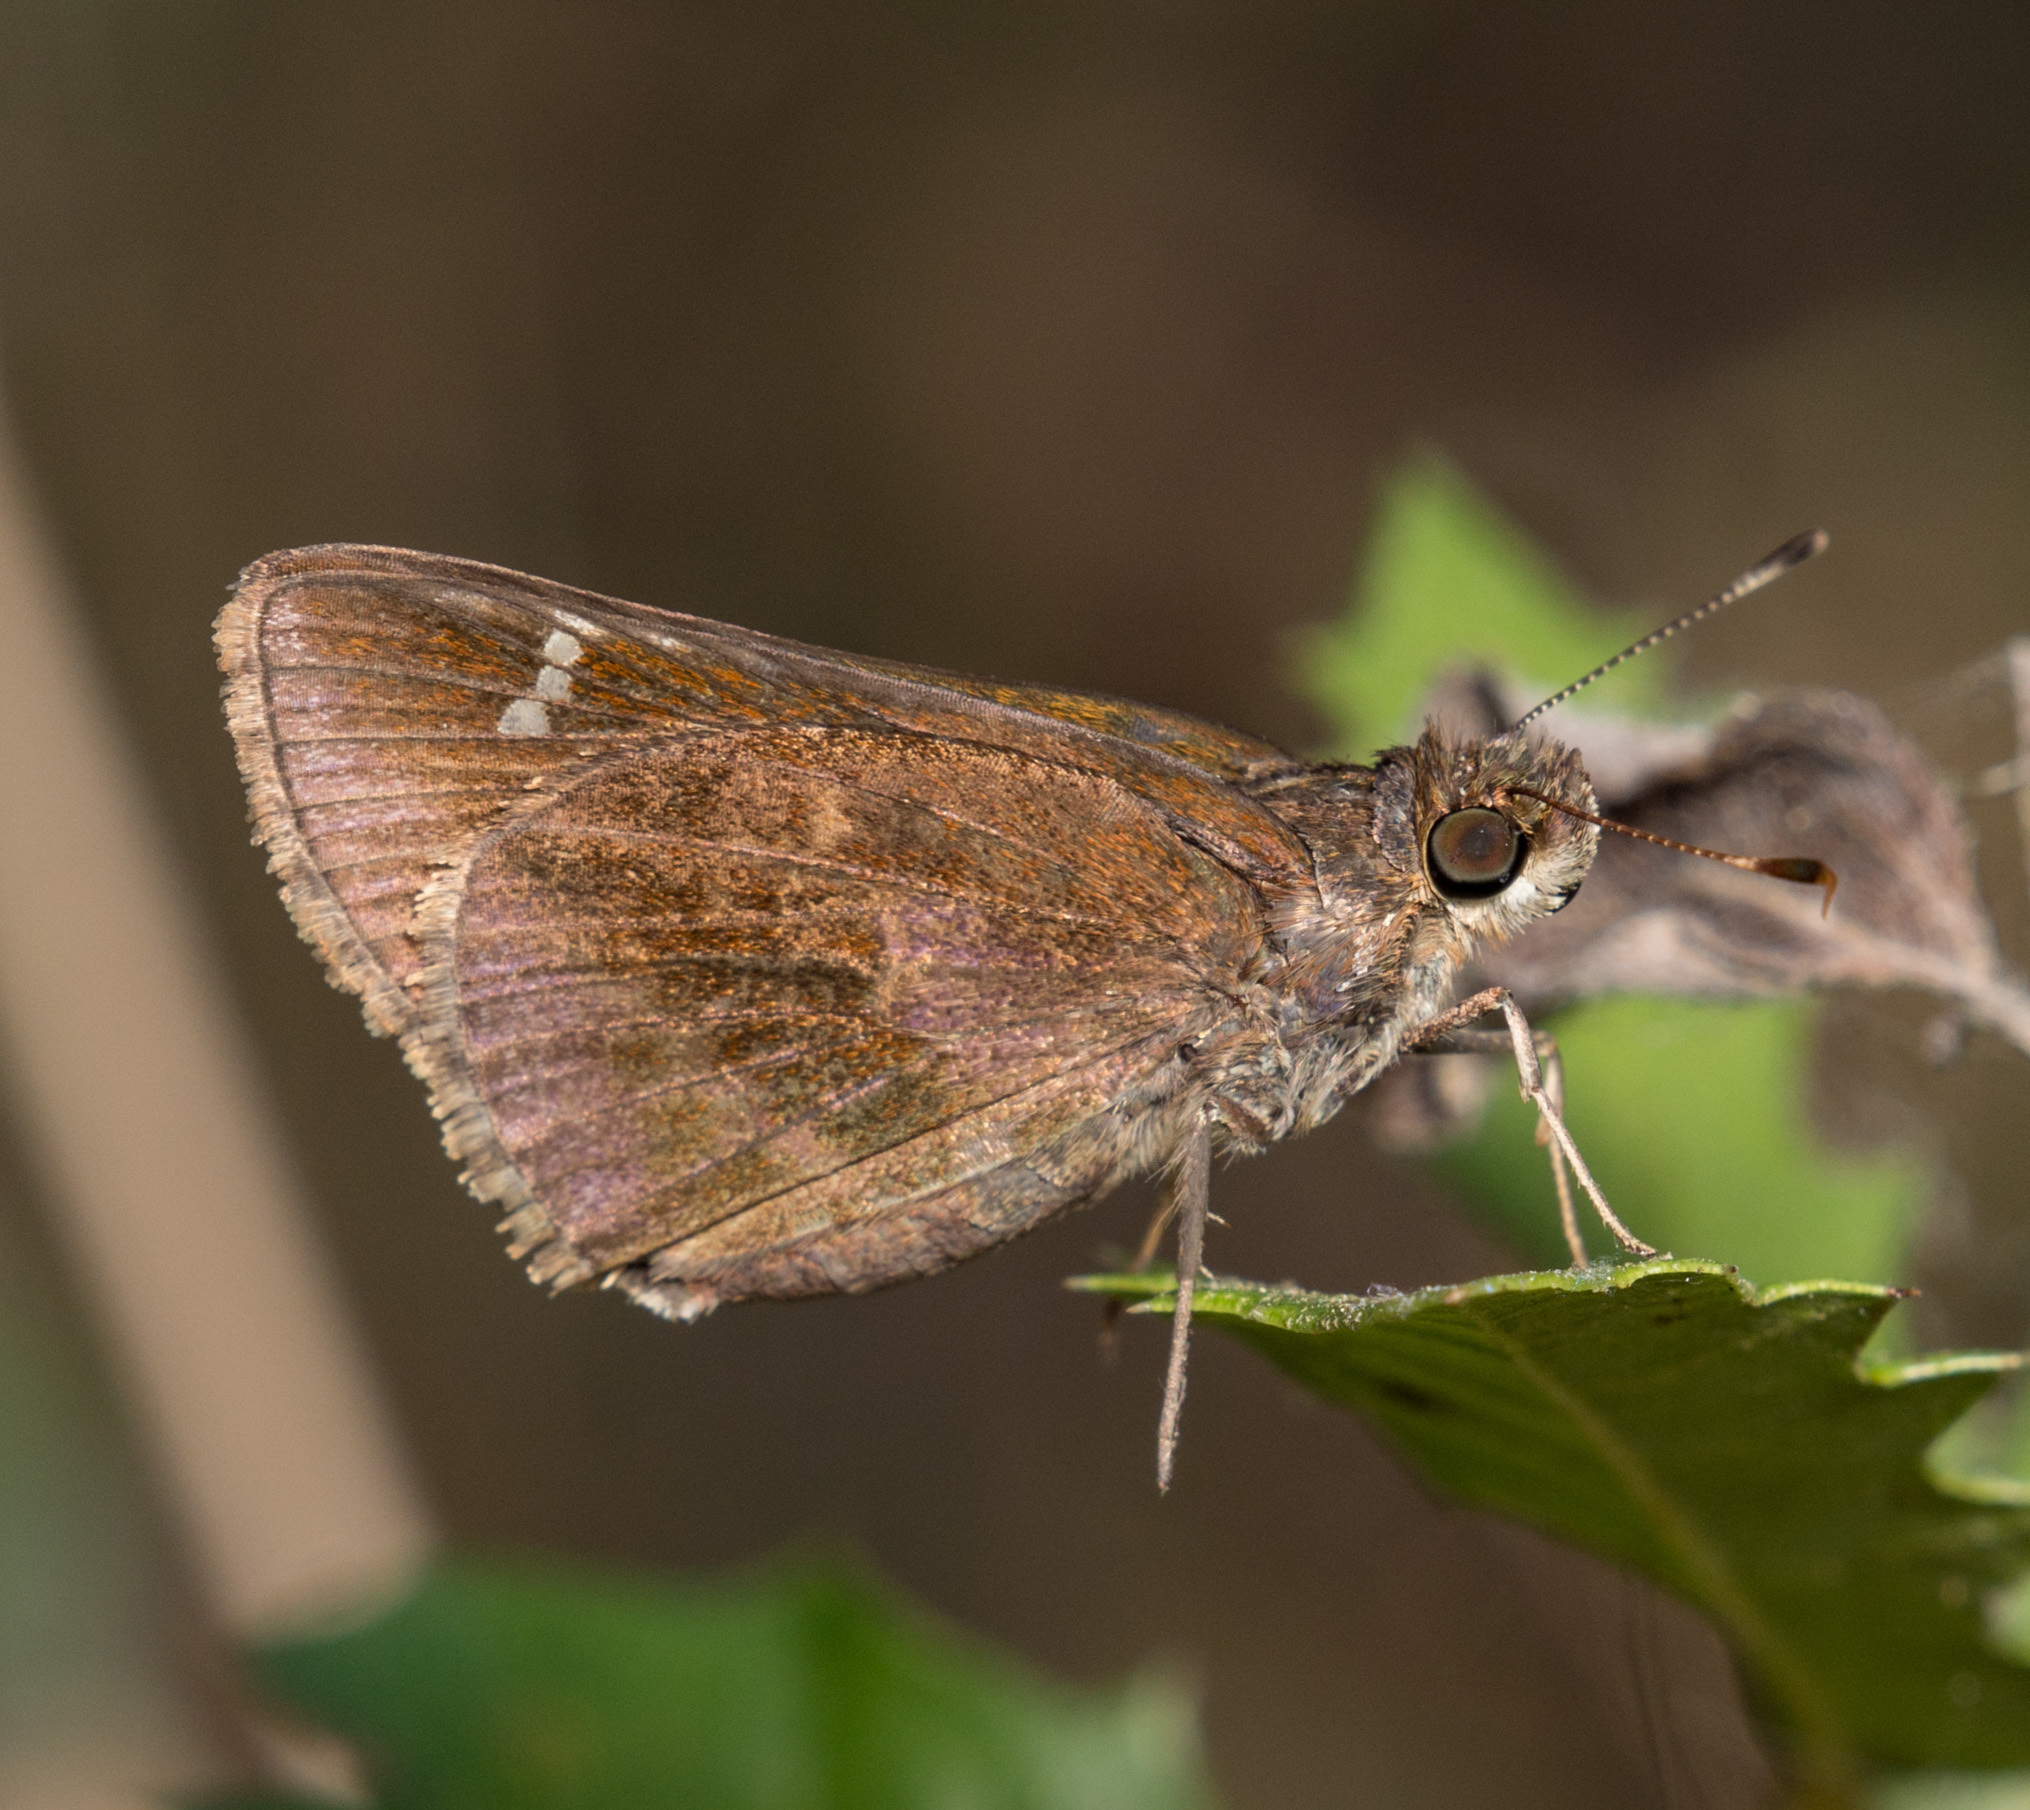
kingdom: Animalia
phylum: Arthropoda
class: Insecta
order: Lepidoptera
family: Hesperiidae
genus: Lerema
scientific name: Lerema accius
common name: Clouded skipper
